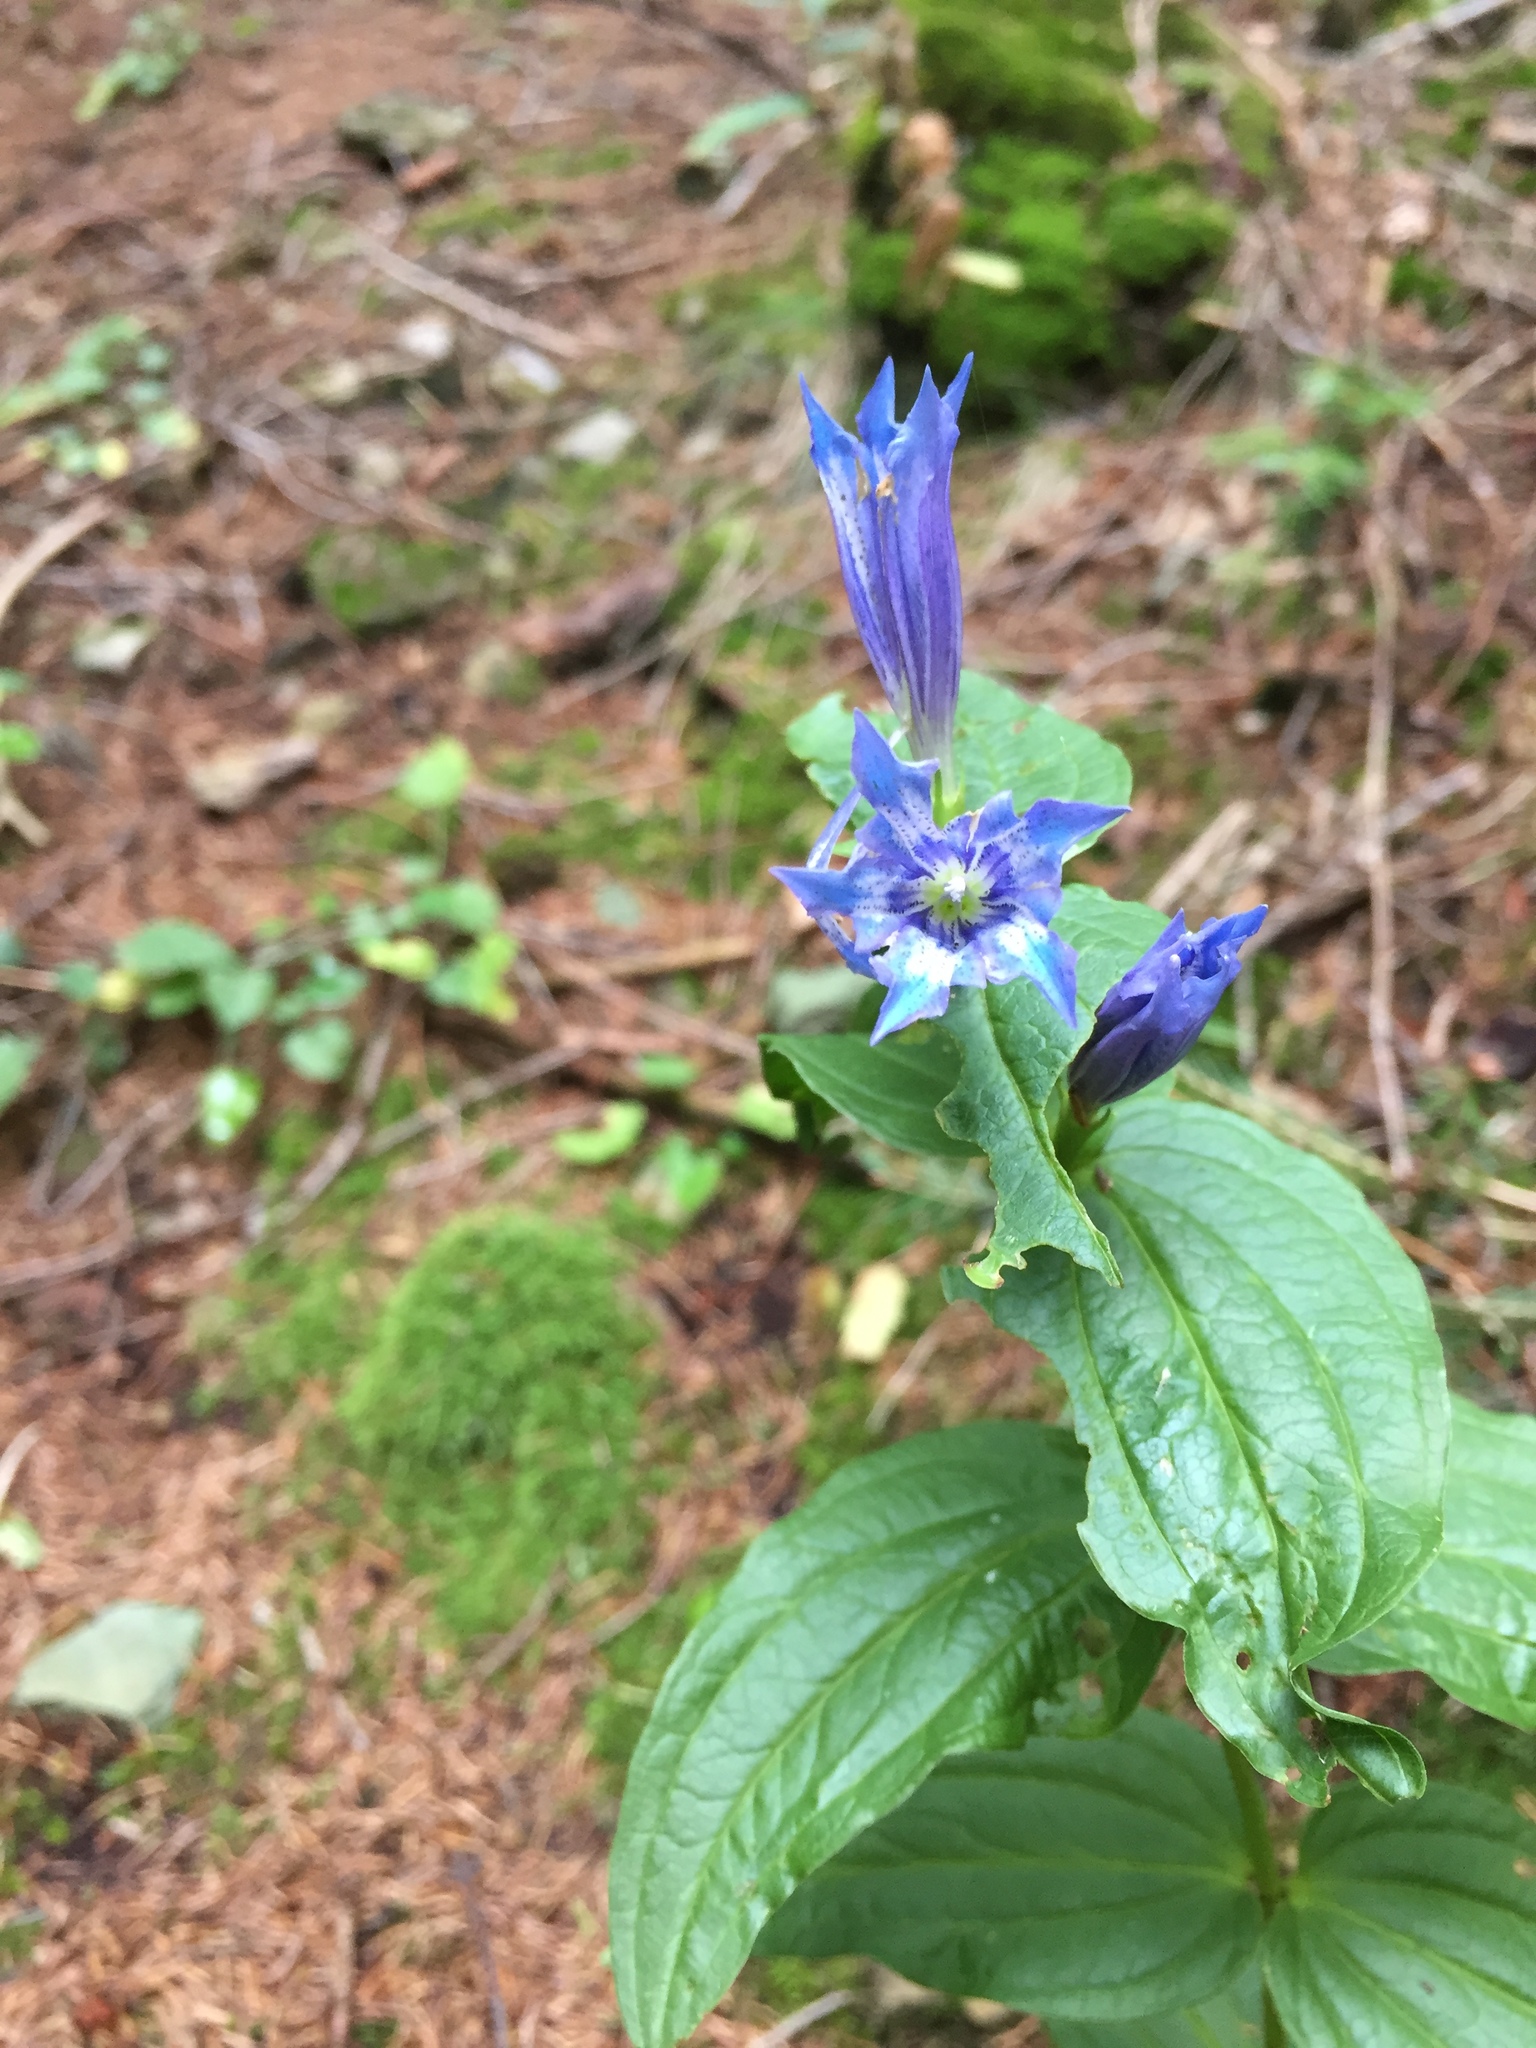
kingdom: Plantae
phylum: Tracheophyta
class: Magnoliopsida
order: Gentianales
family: Gentianaceae
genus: Gentiana
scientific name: Gentiana asclepiadea
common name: Willow gentian
